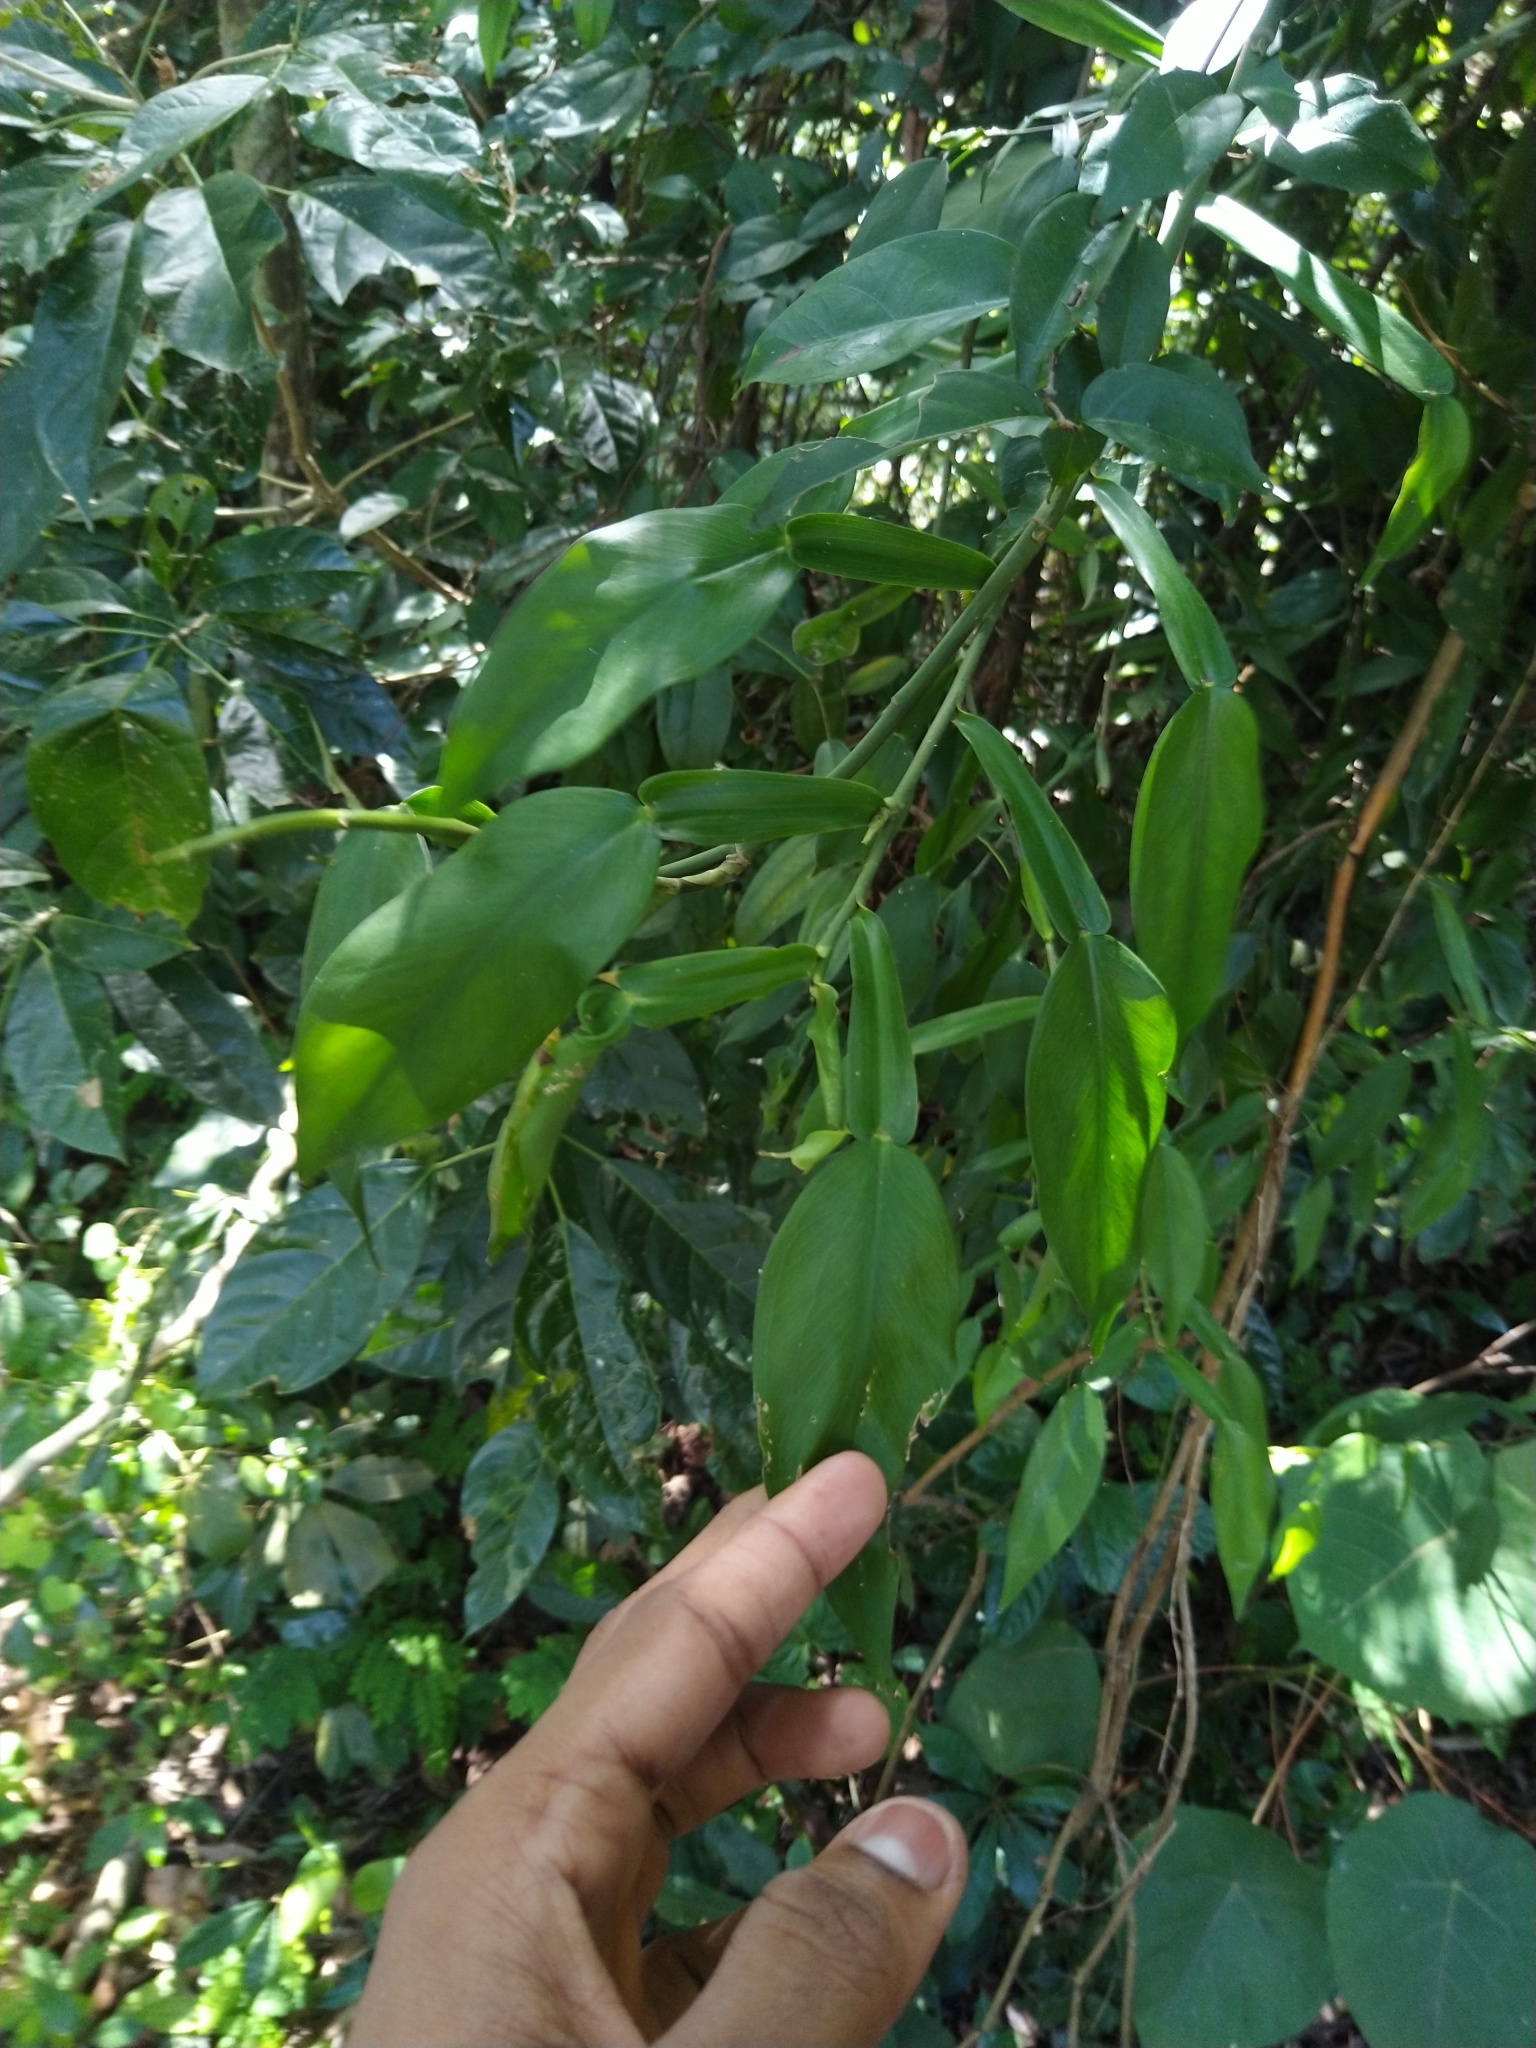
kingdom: Plantae
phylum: Tracheophyta
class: Liliopsida
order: Alismatales
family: Araceae
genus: Pothos
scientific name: Pothos chinensis
